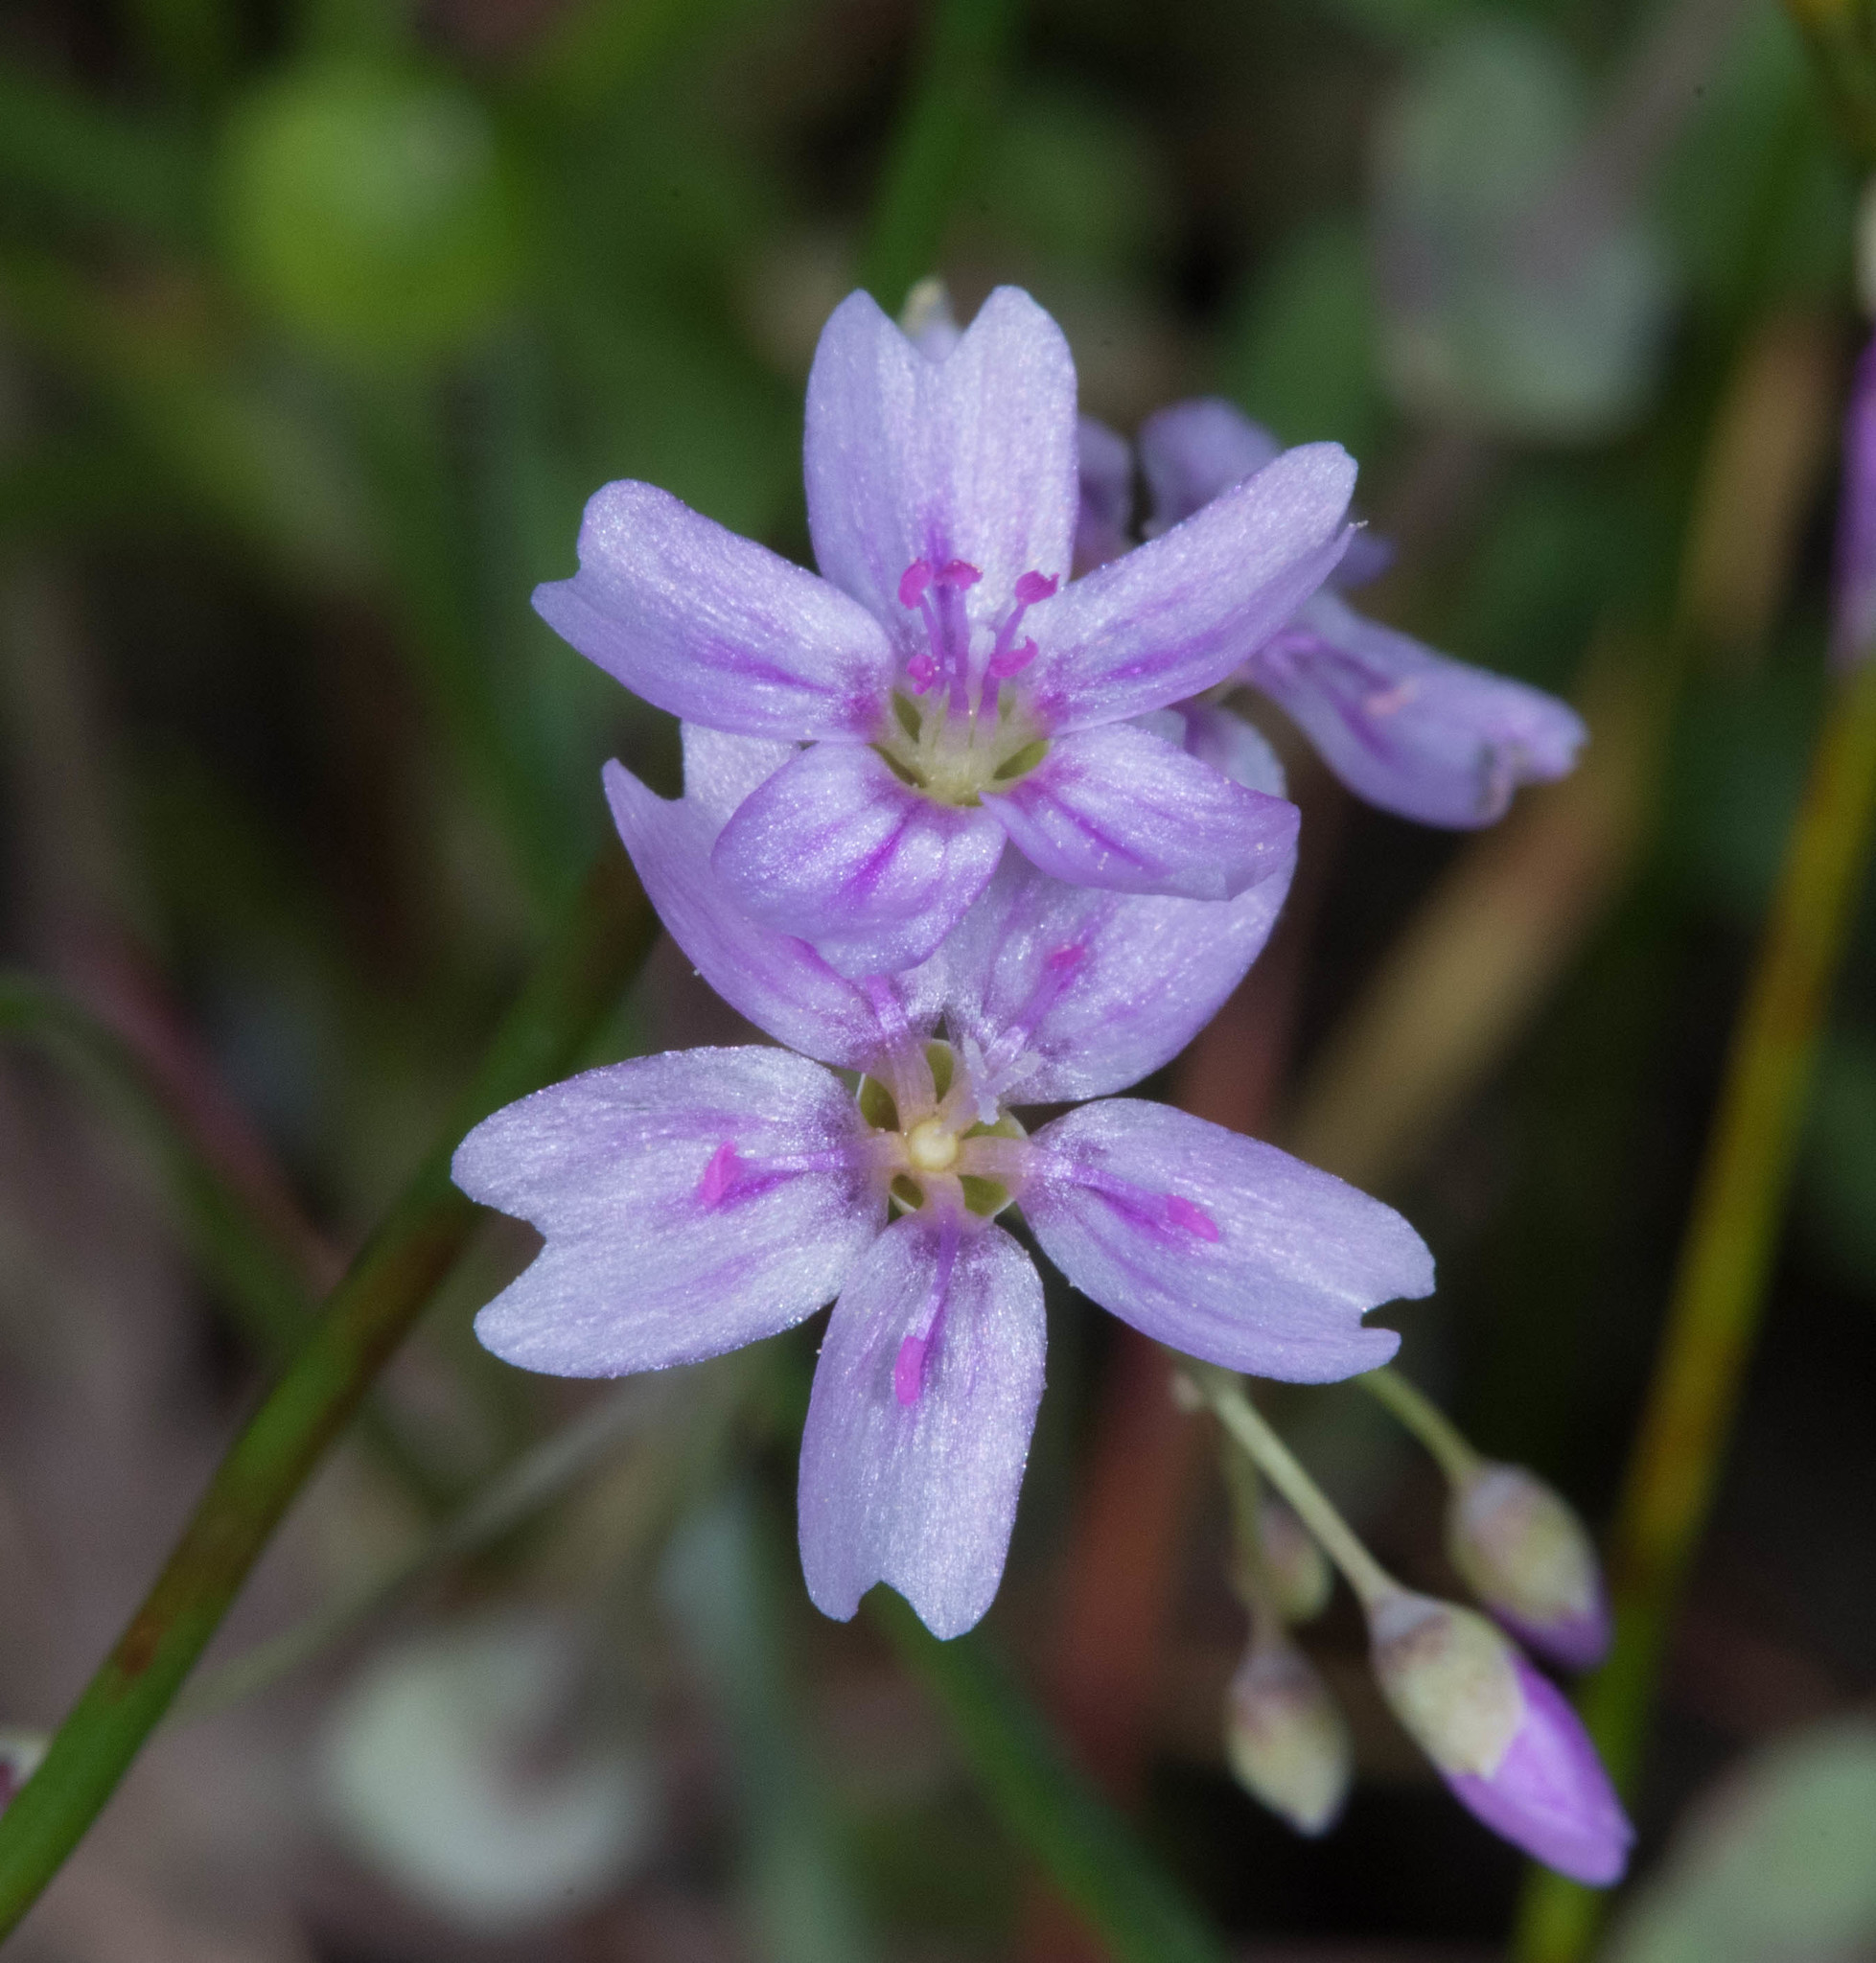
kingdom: Plantae
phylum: Tracheophyta
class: Magnoliopsida
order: Caryophyllales
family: Montiaceae
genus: Claytonia
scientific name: Claytonia gypsophiloides
